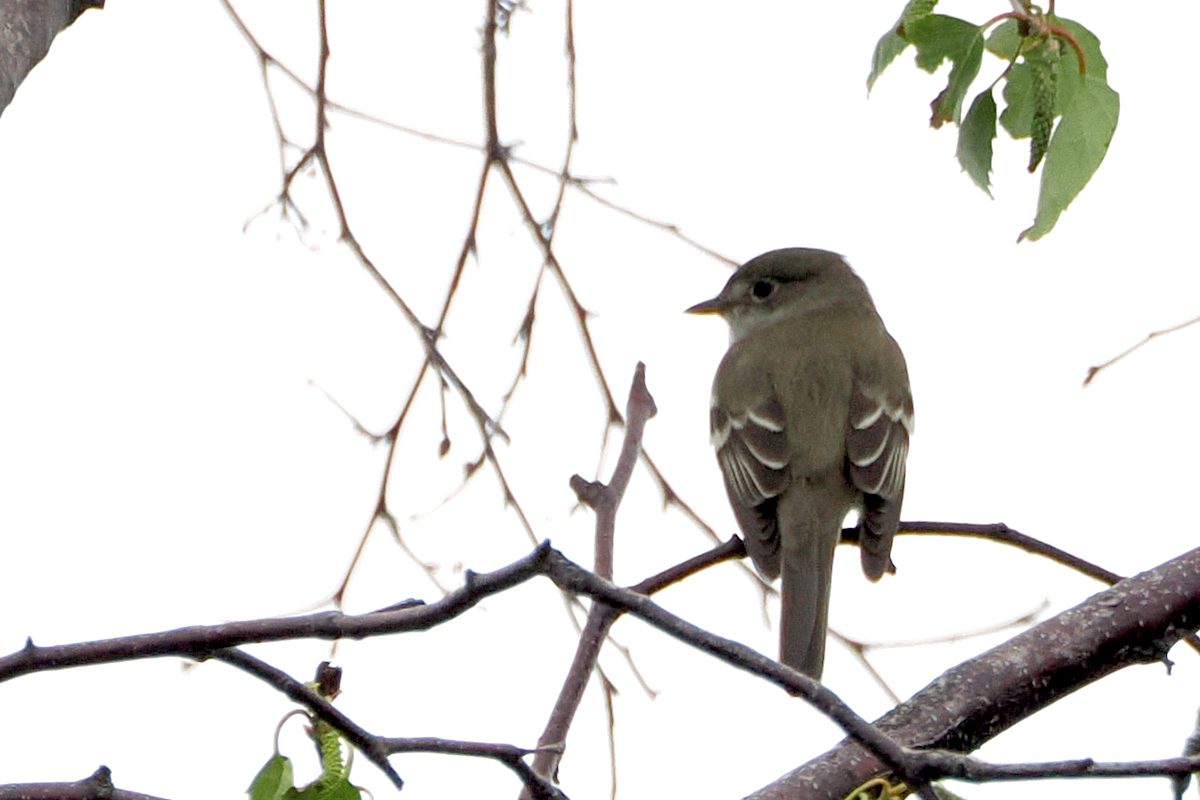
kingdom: Animalia
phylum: Chordata
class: Aves
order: Passeriformes
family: Tyrannidae
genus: Empidonax
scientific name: Empidonax alnorum
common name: Alder flycatcher
